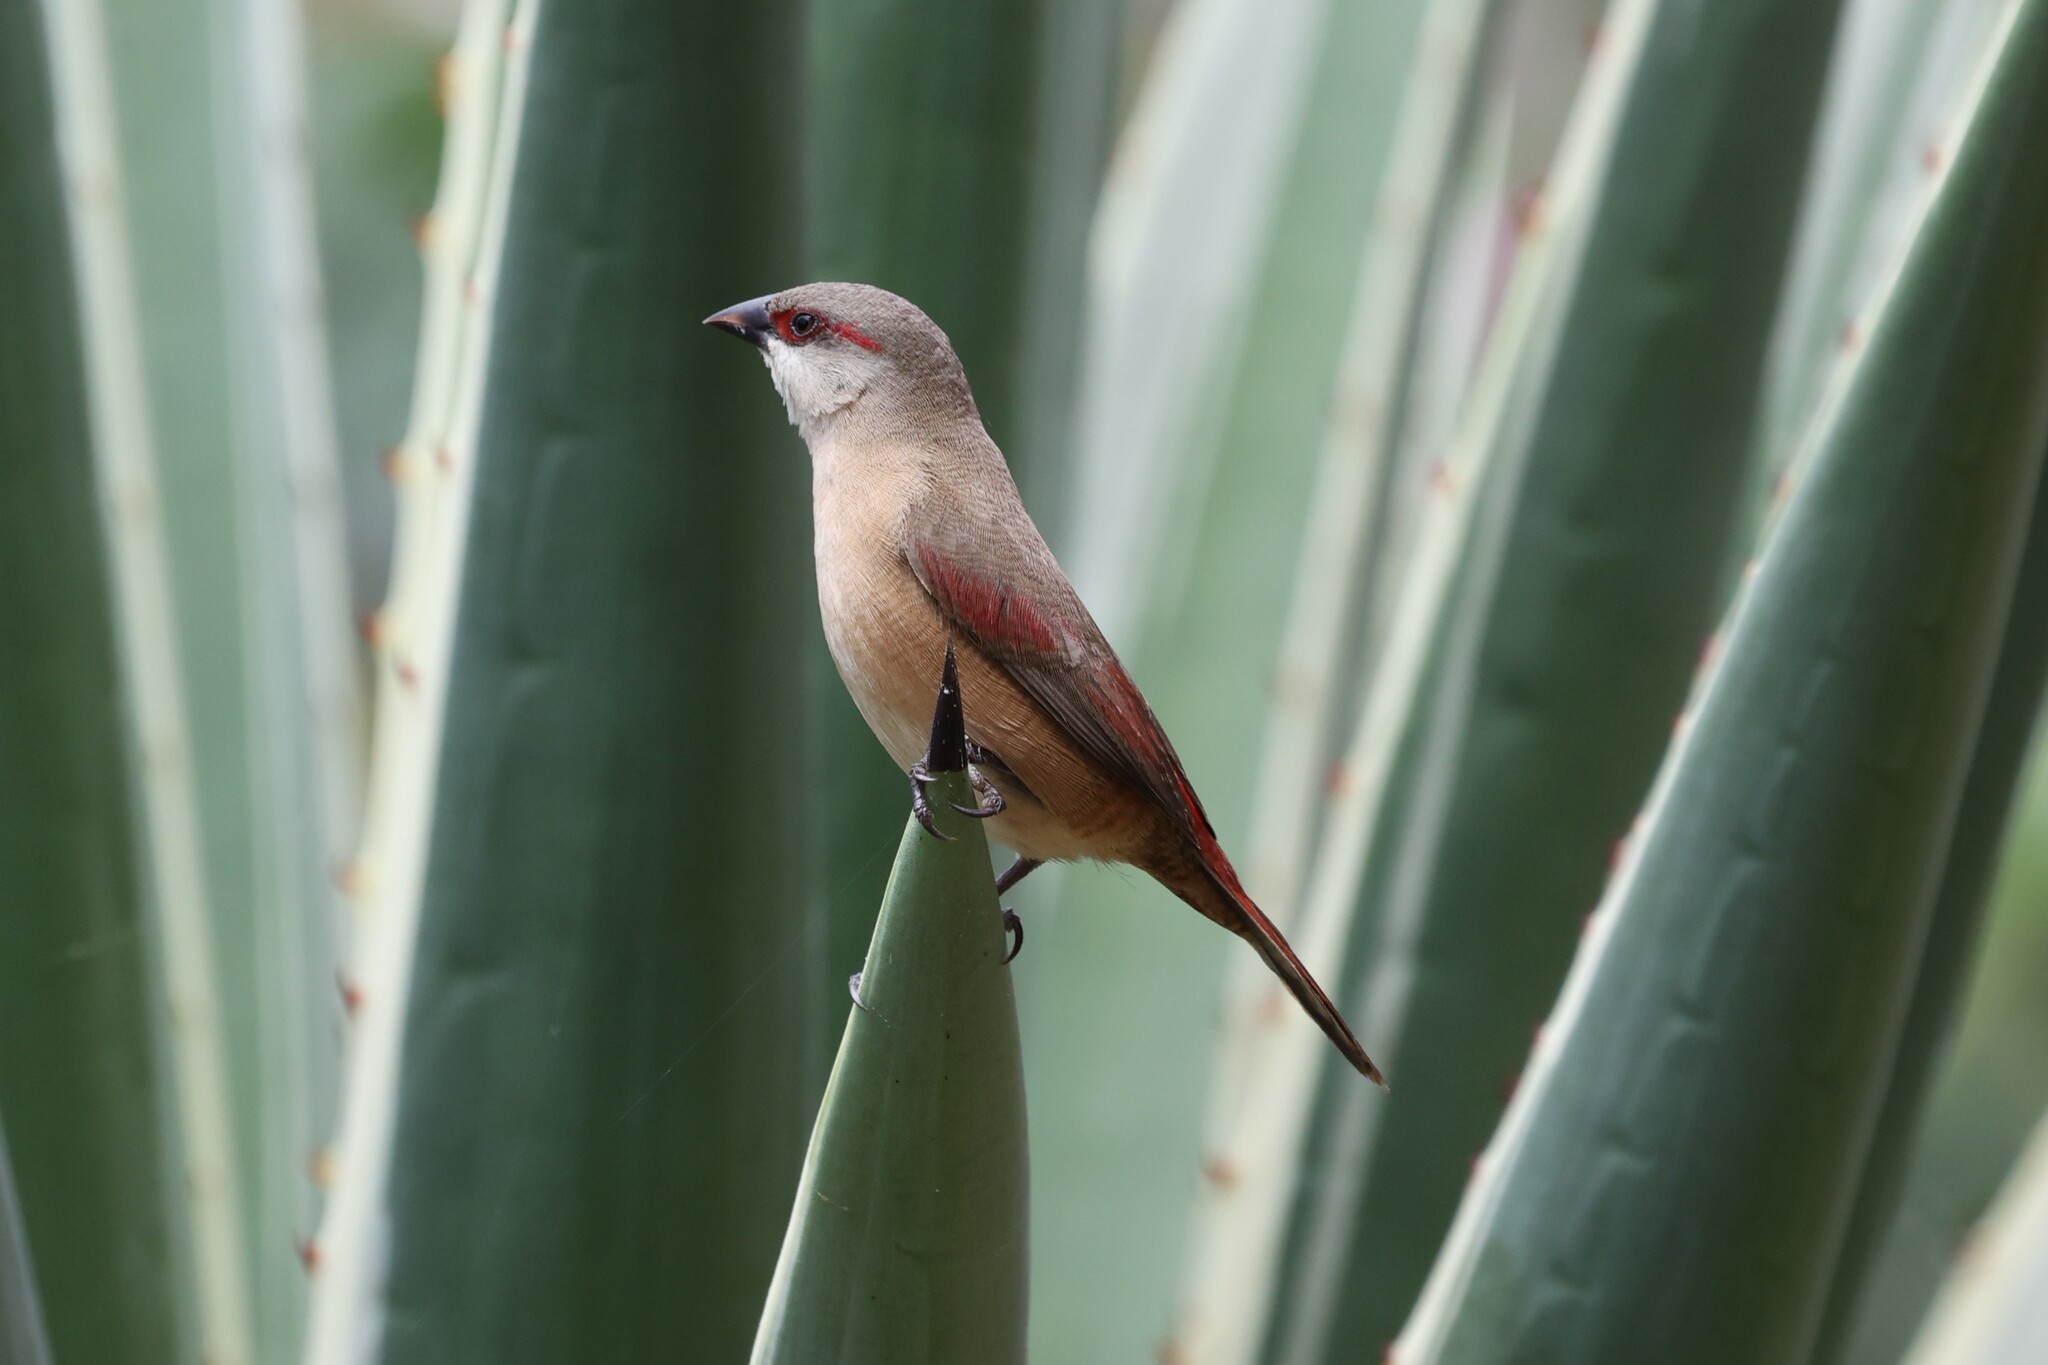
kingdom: Animalia
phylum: Chordata
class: Aves
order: Passeriformes
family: Estrildidae
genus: Estrilda
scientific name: Estrilda rhodopyga
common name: Crimson-rumped waxbill
